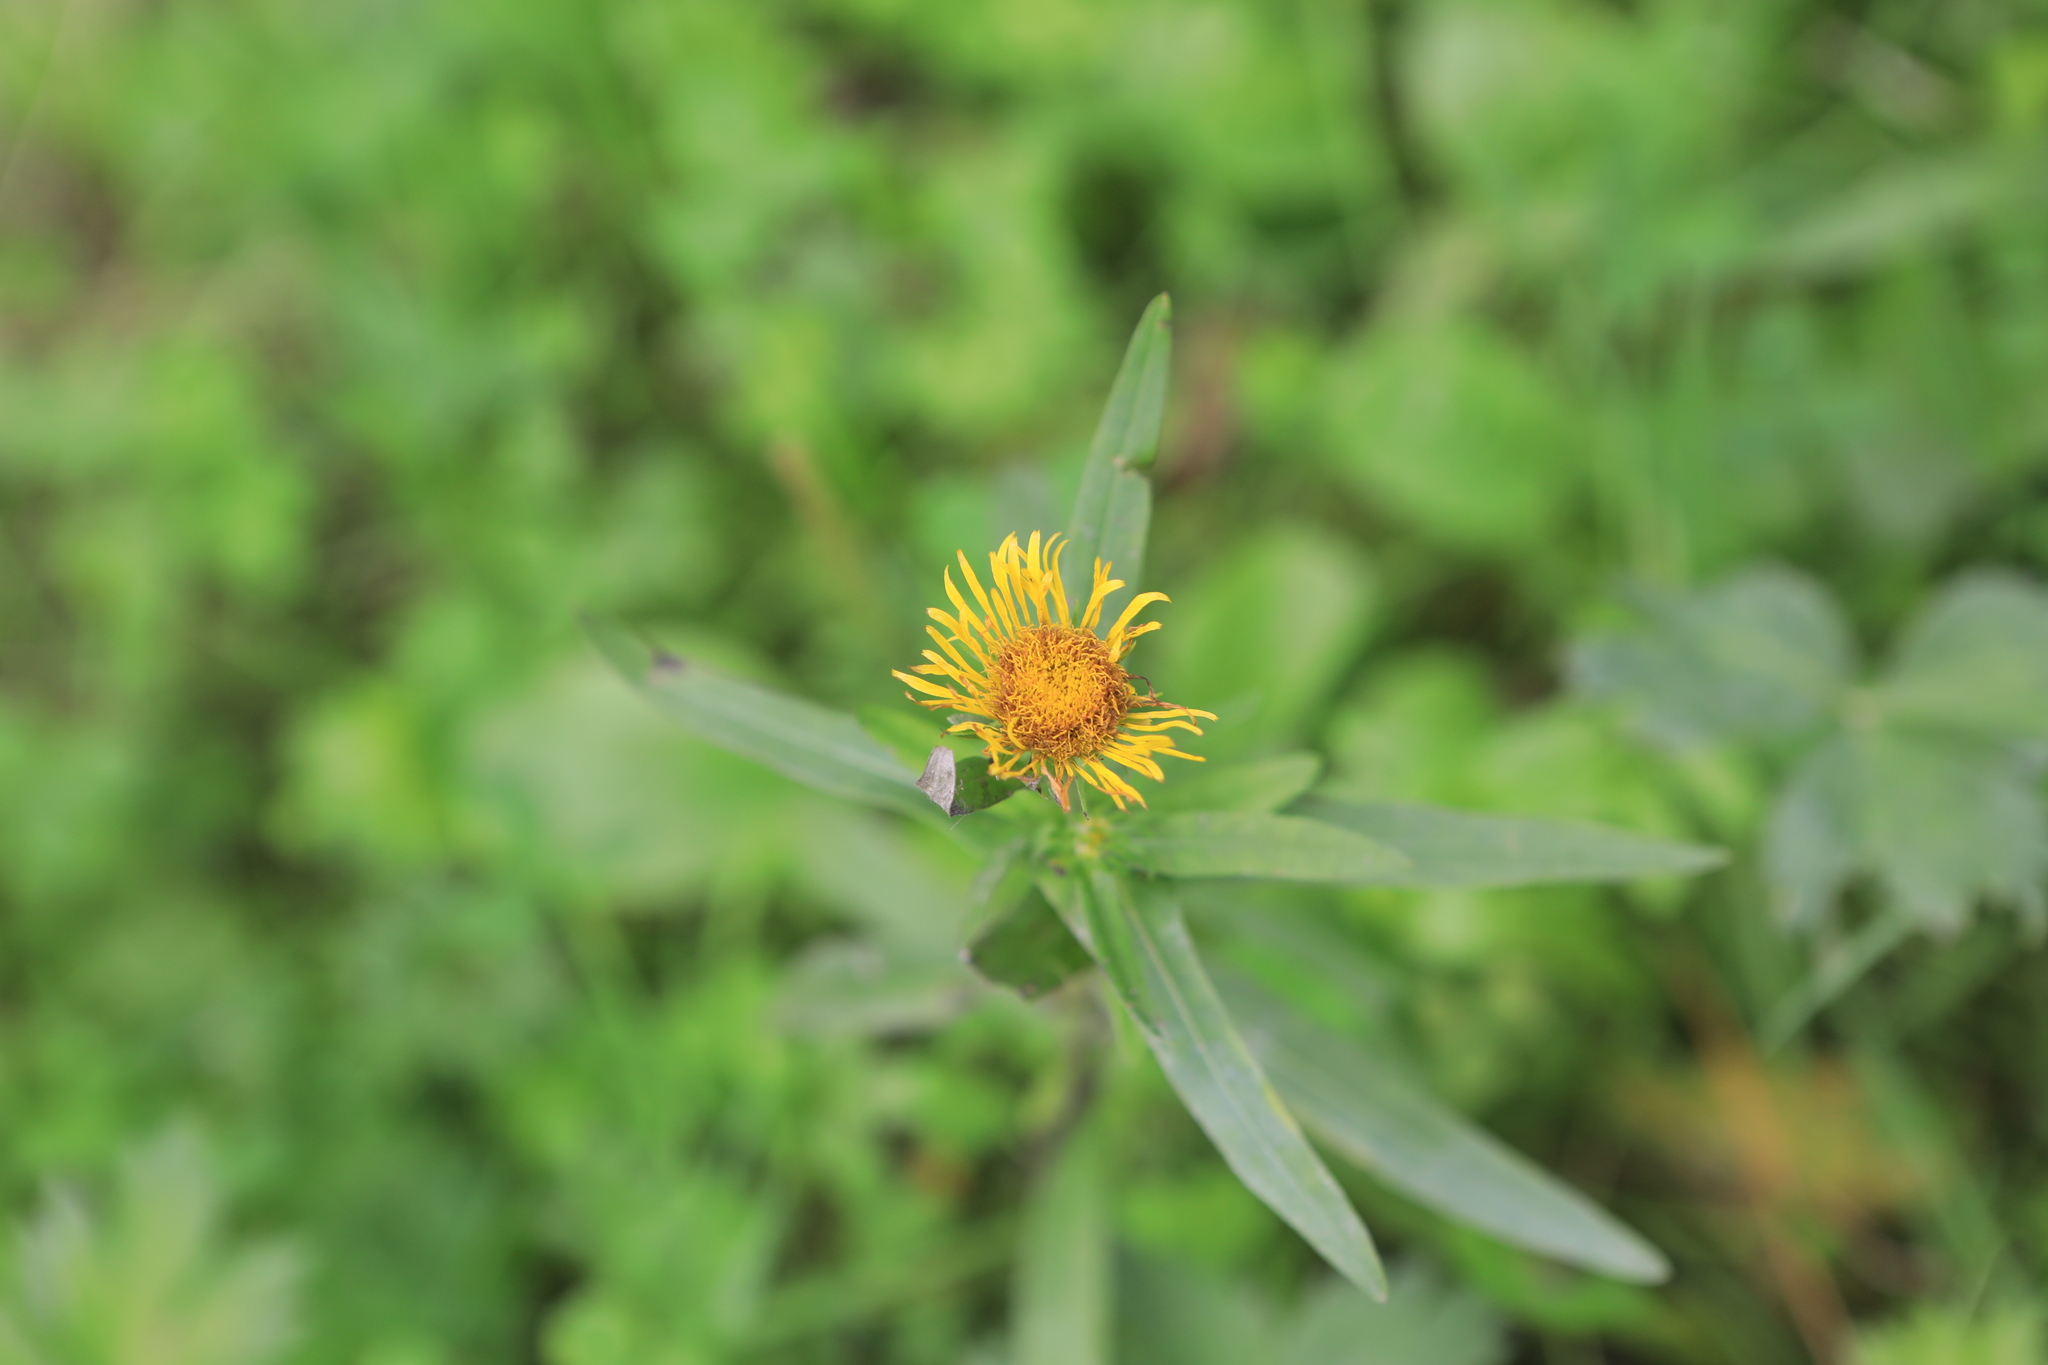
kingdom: Plantae
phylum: Tracheophyta
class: Magnoliopsida
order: Asterales
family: Asteraceae
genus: Pentanema
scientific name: Pentanema salicinum
